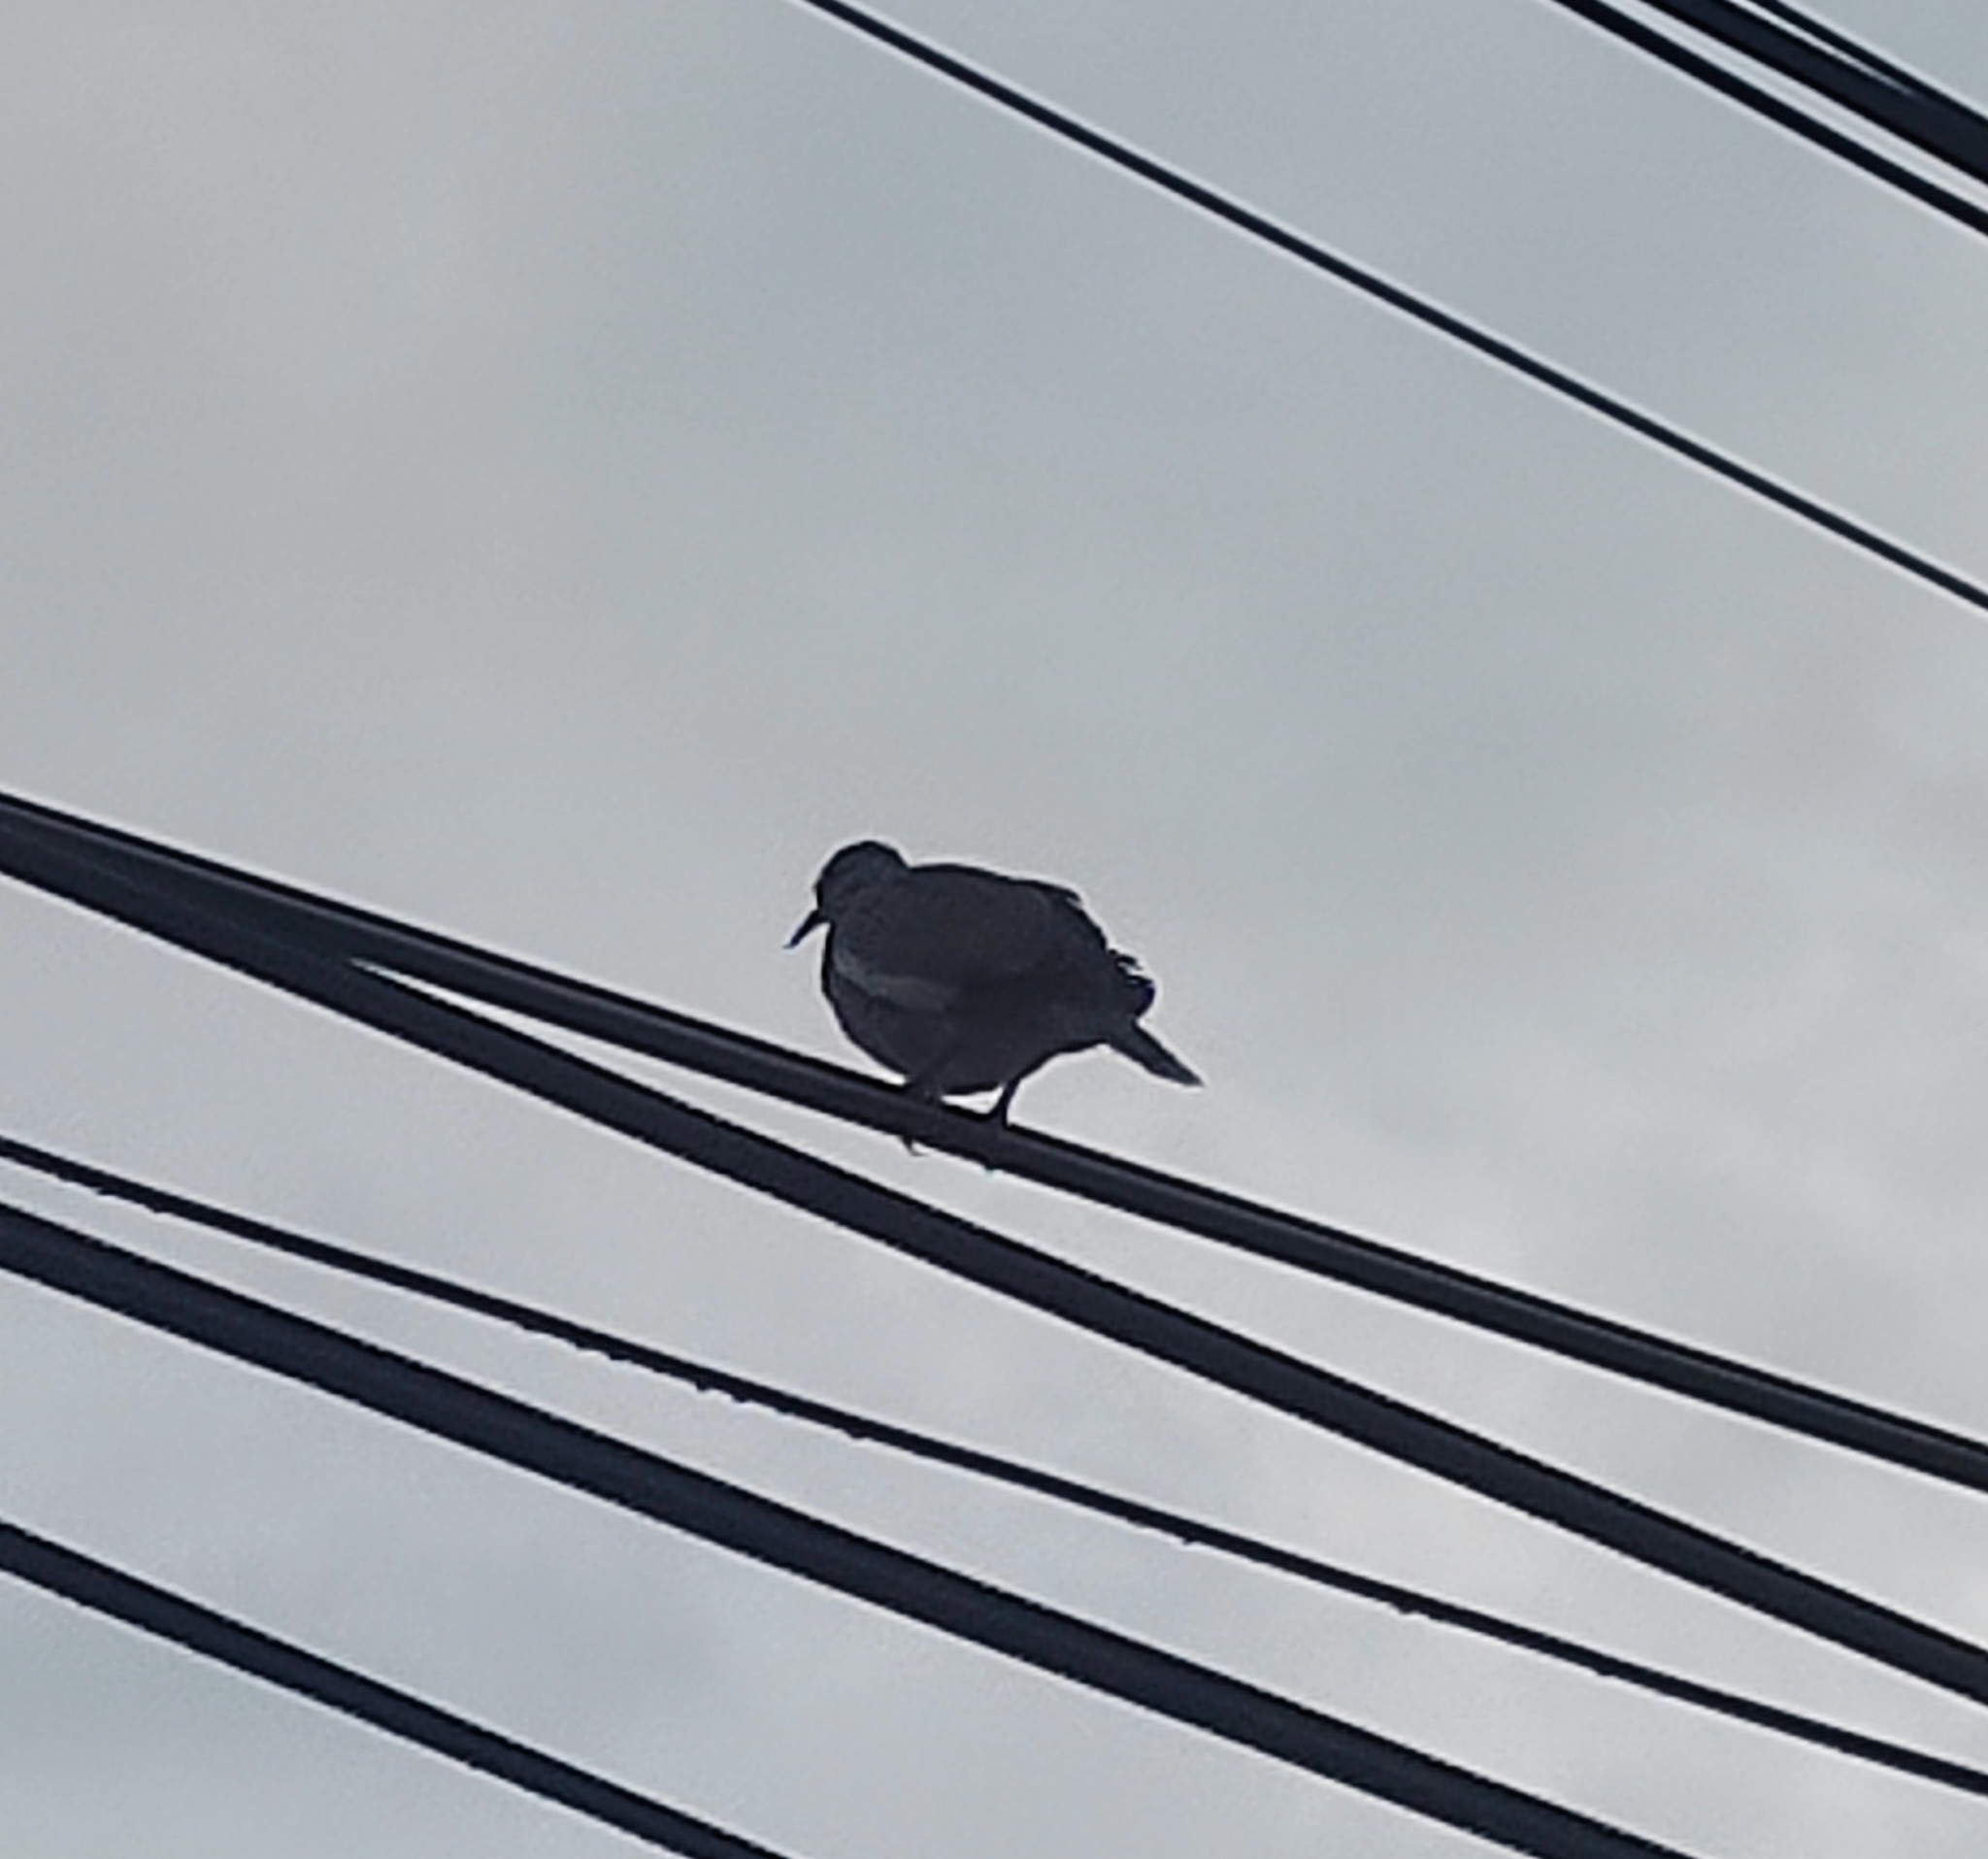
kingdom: Animalia
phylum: Chordata
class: Aves
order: Columbiformes
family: Columbidae
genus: Zenaida
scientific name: Zenaida asiatica
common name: White-winged dove
